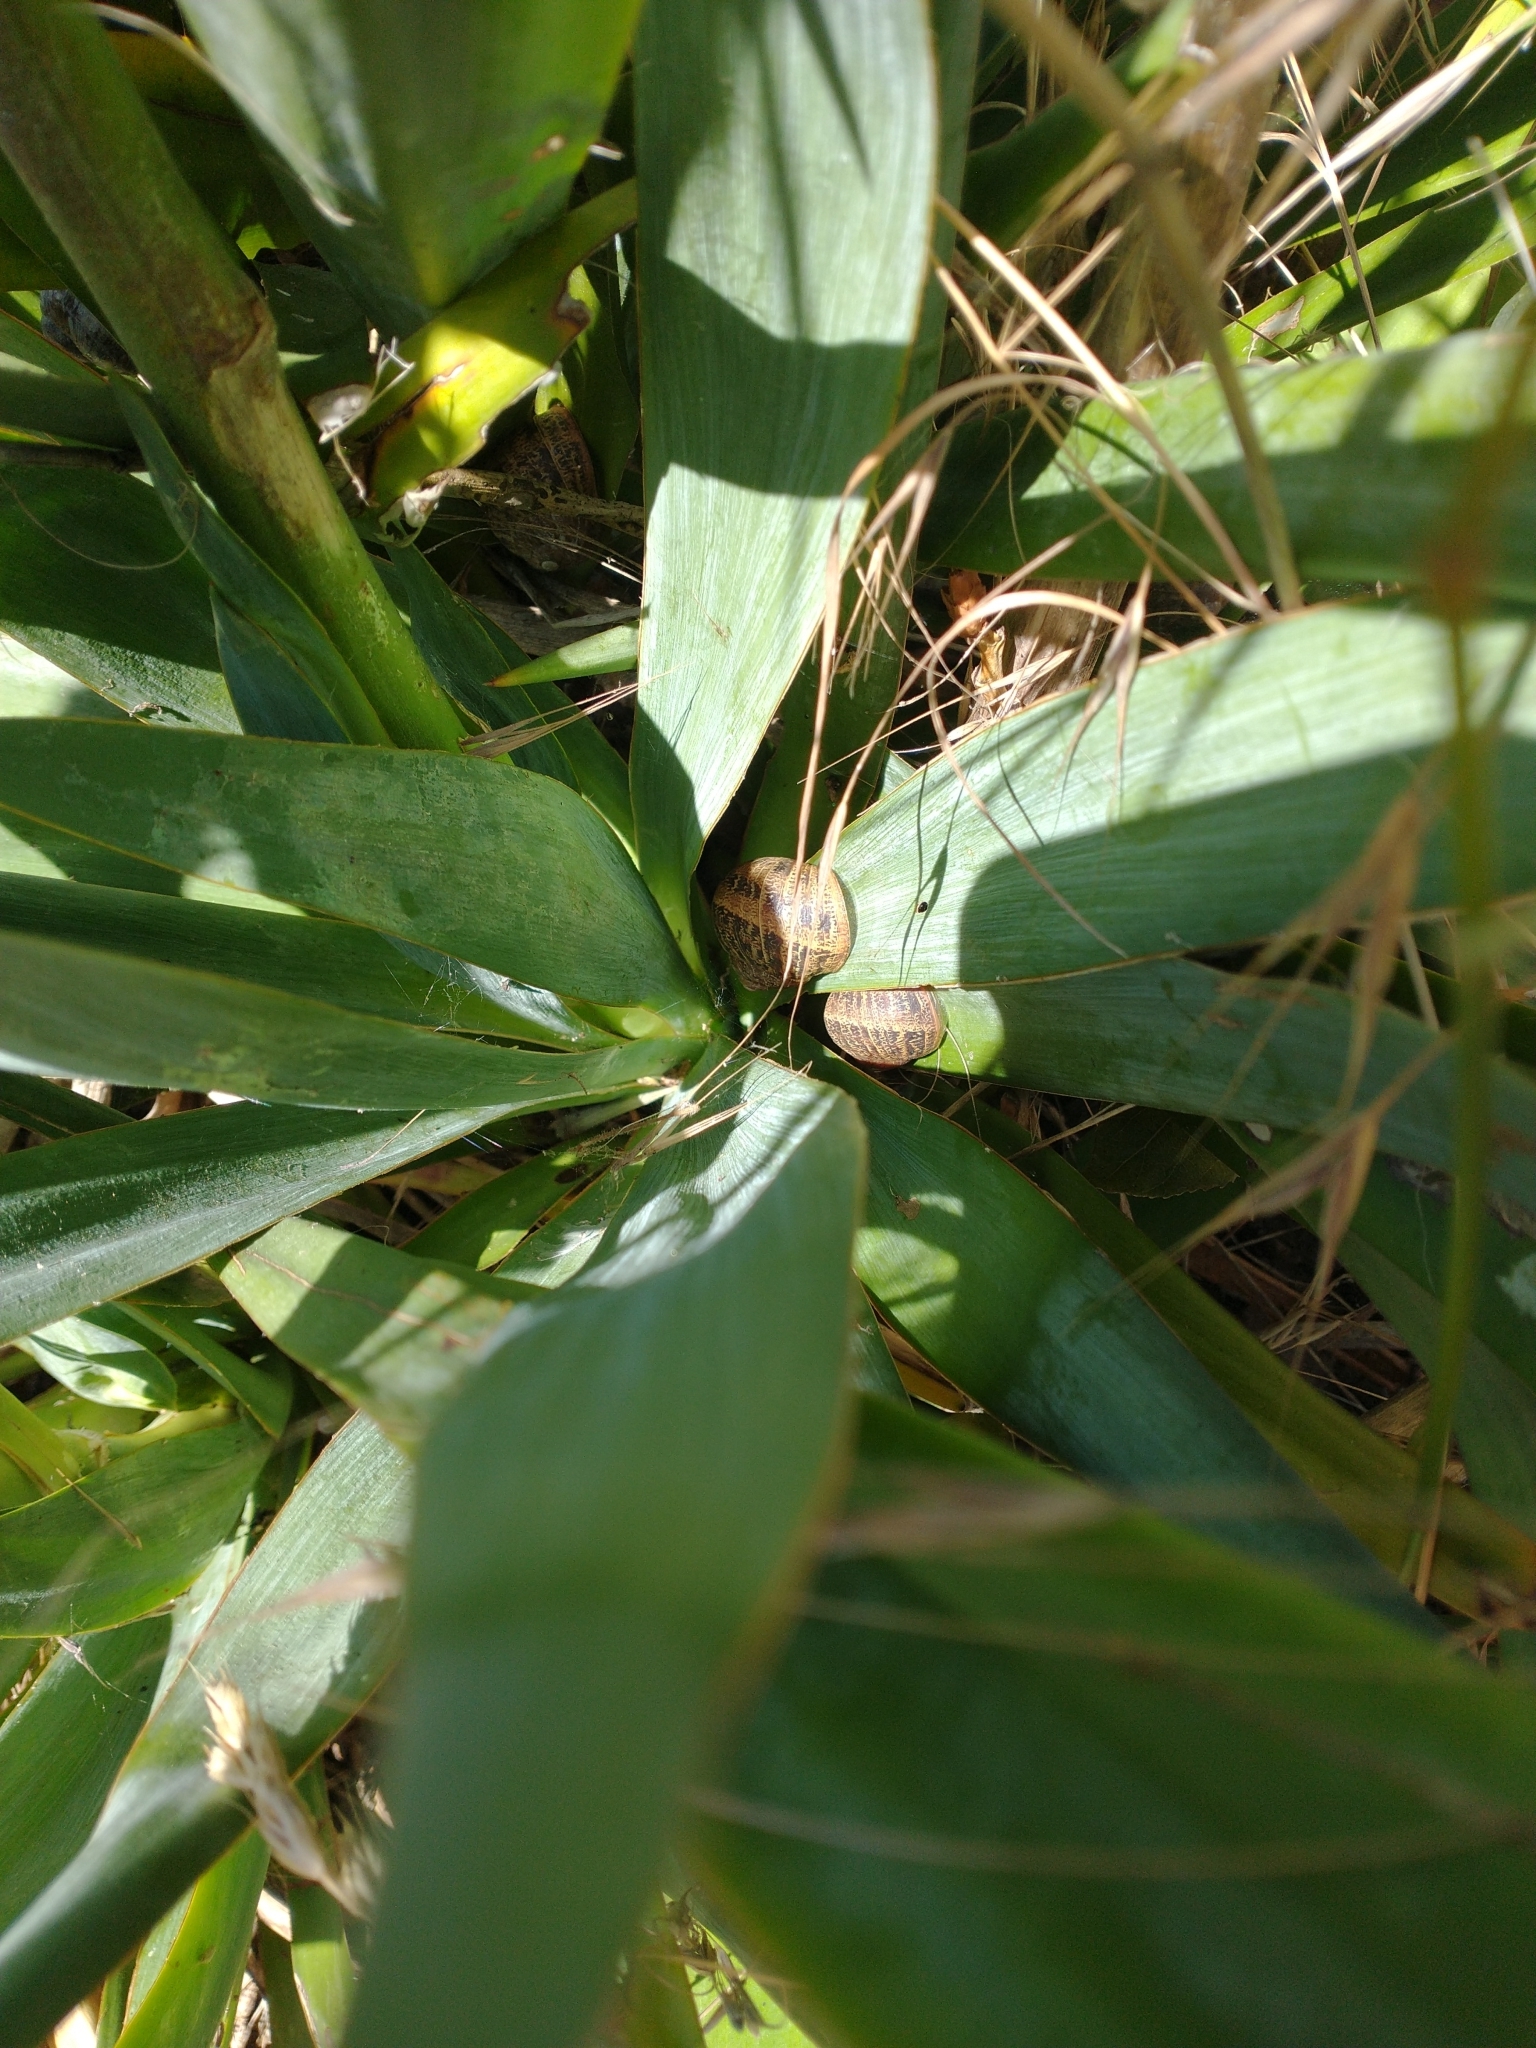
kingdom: Animalia
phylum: Mollusca
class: Gastropoda
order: Stylommatophora
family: Helicidae
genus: Cornu
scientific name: Cornu aspersum
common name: Brown garden snail
